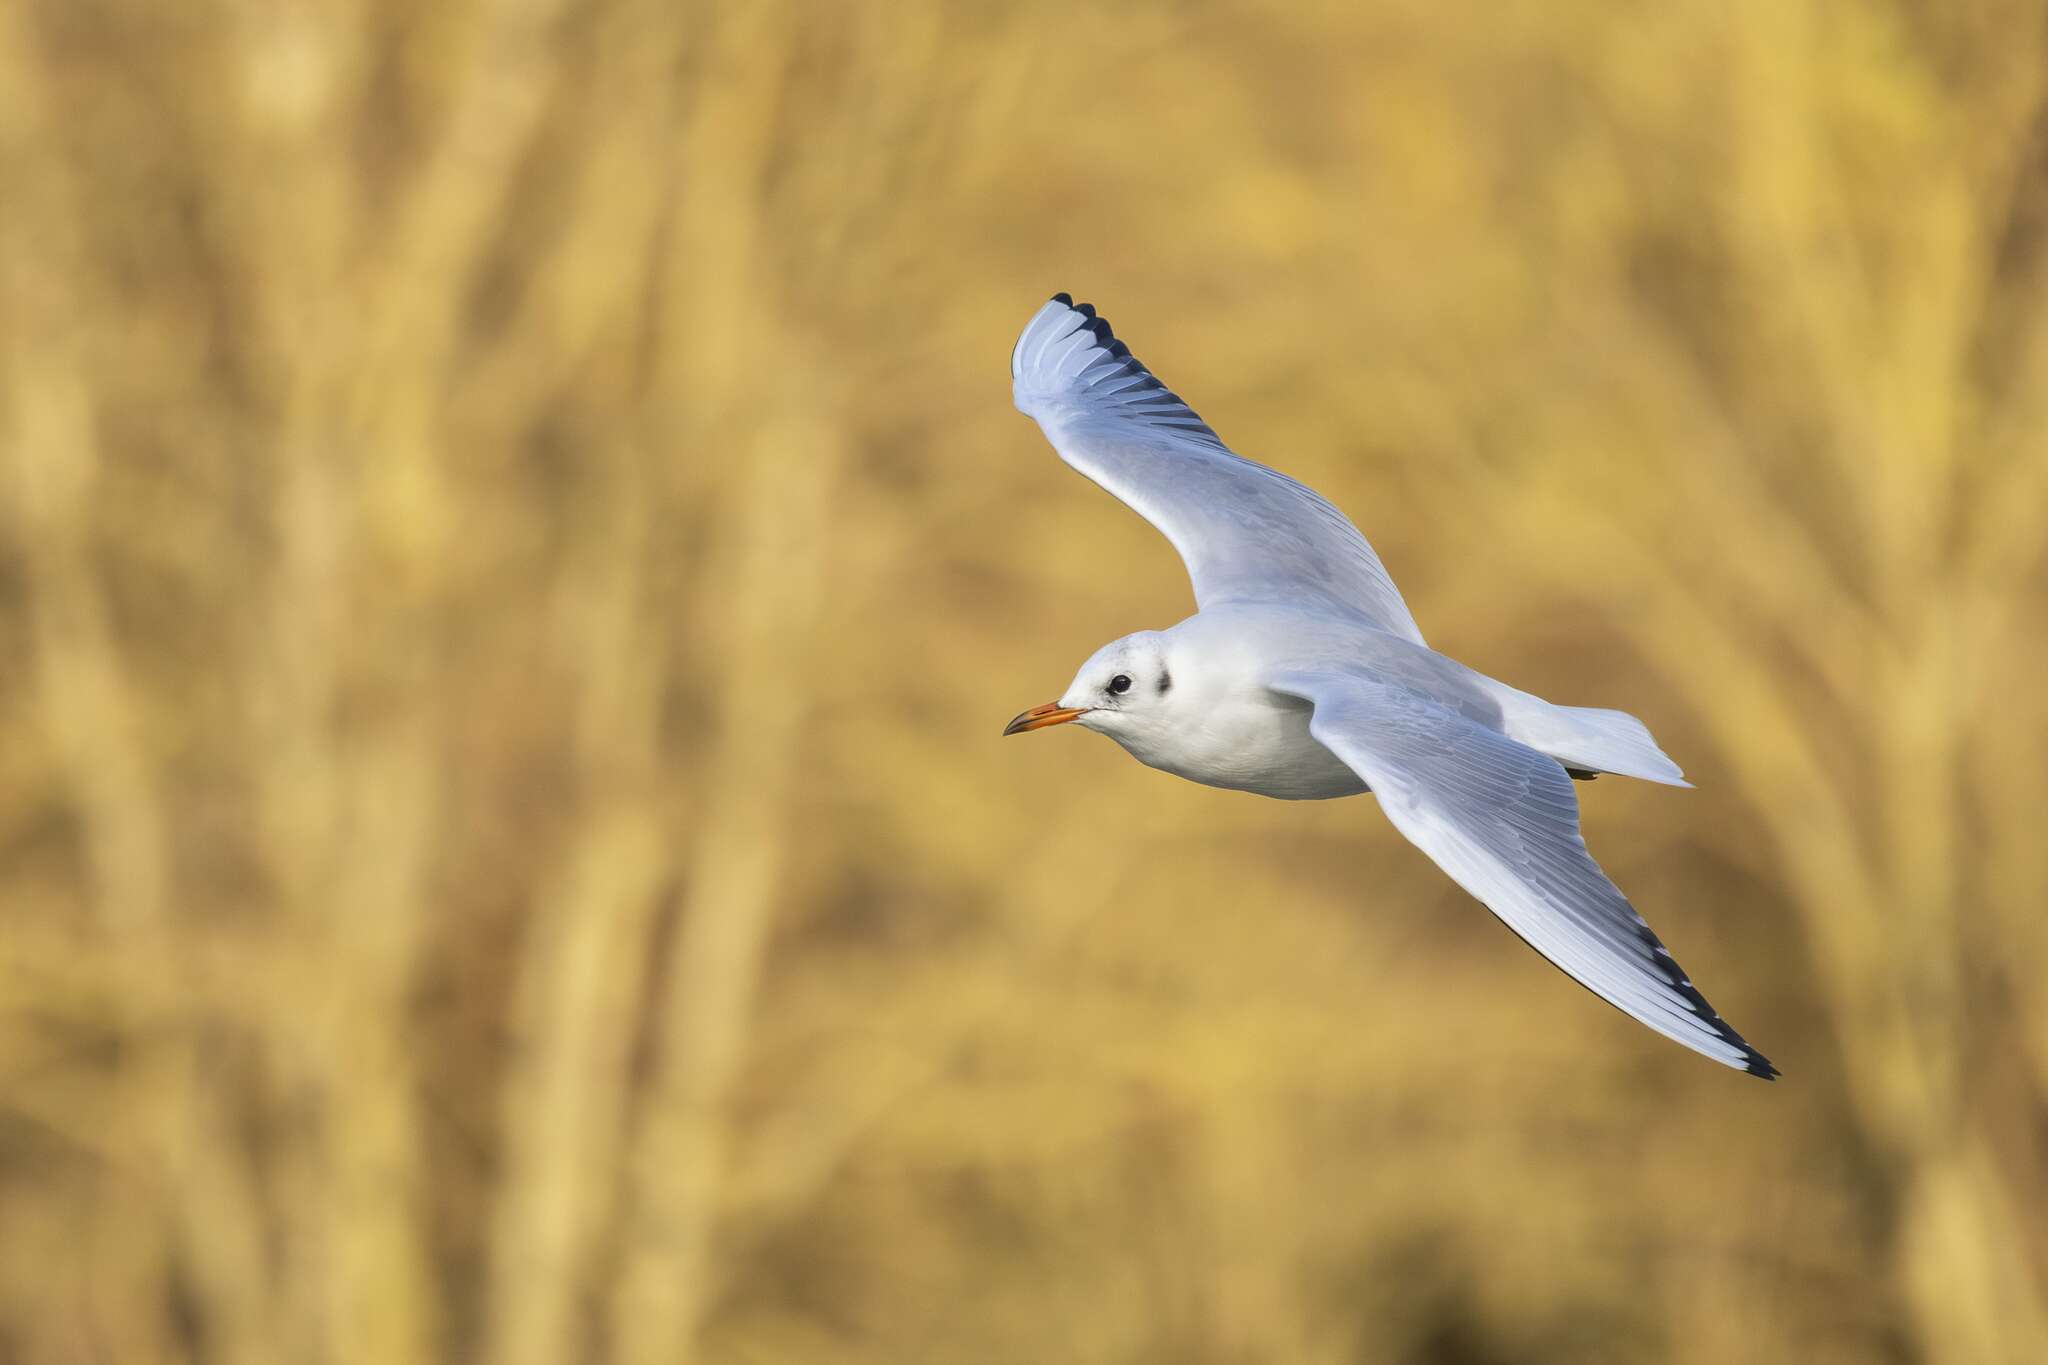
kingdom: Animalia
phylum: Chordata
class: Aves
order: Charadriiformes
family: Laridae
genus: Chroicocephalus
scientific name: Chroicocephalus ridibundus
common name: Black-headed gull
